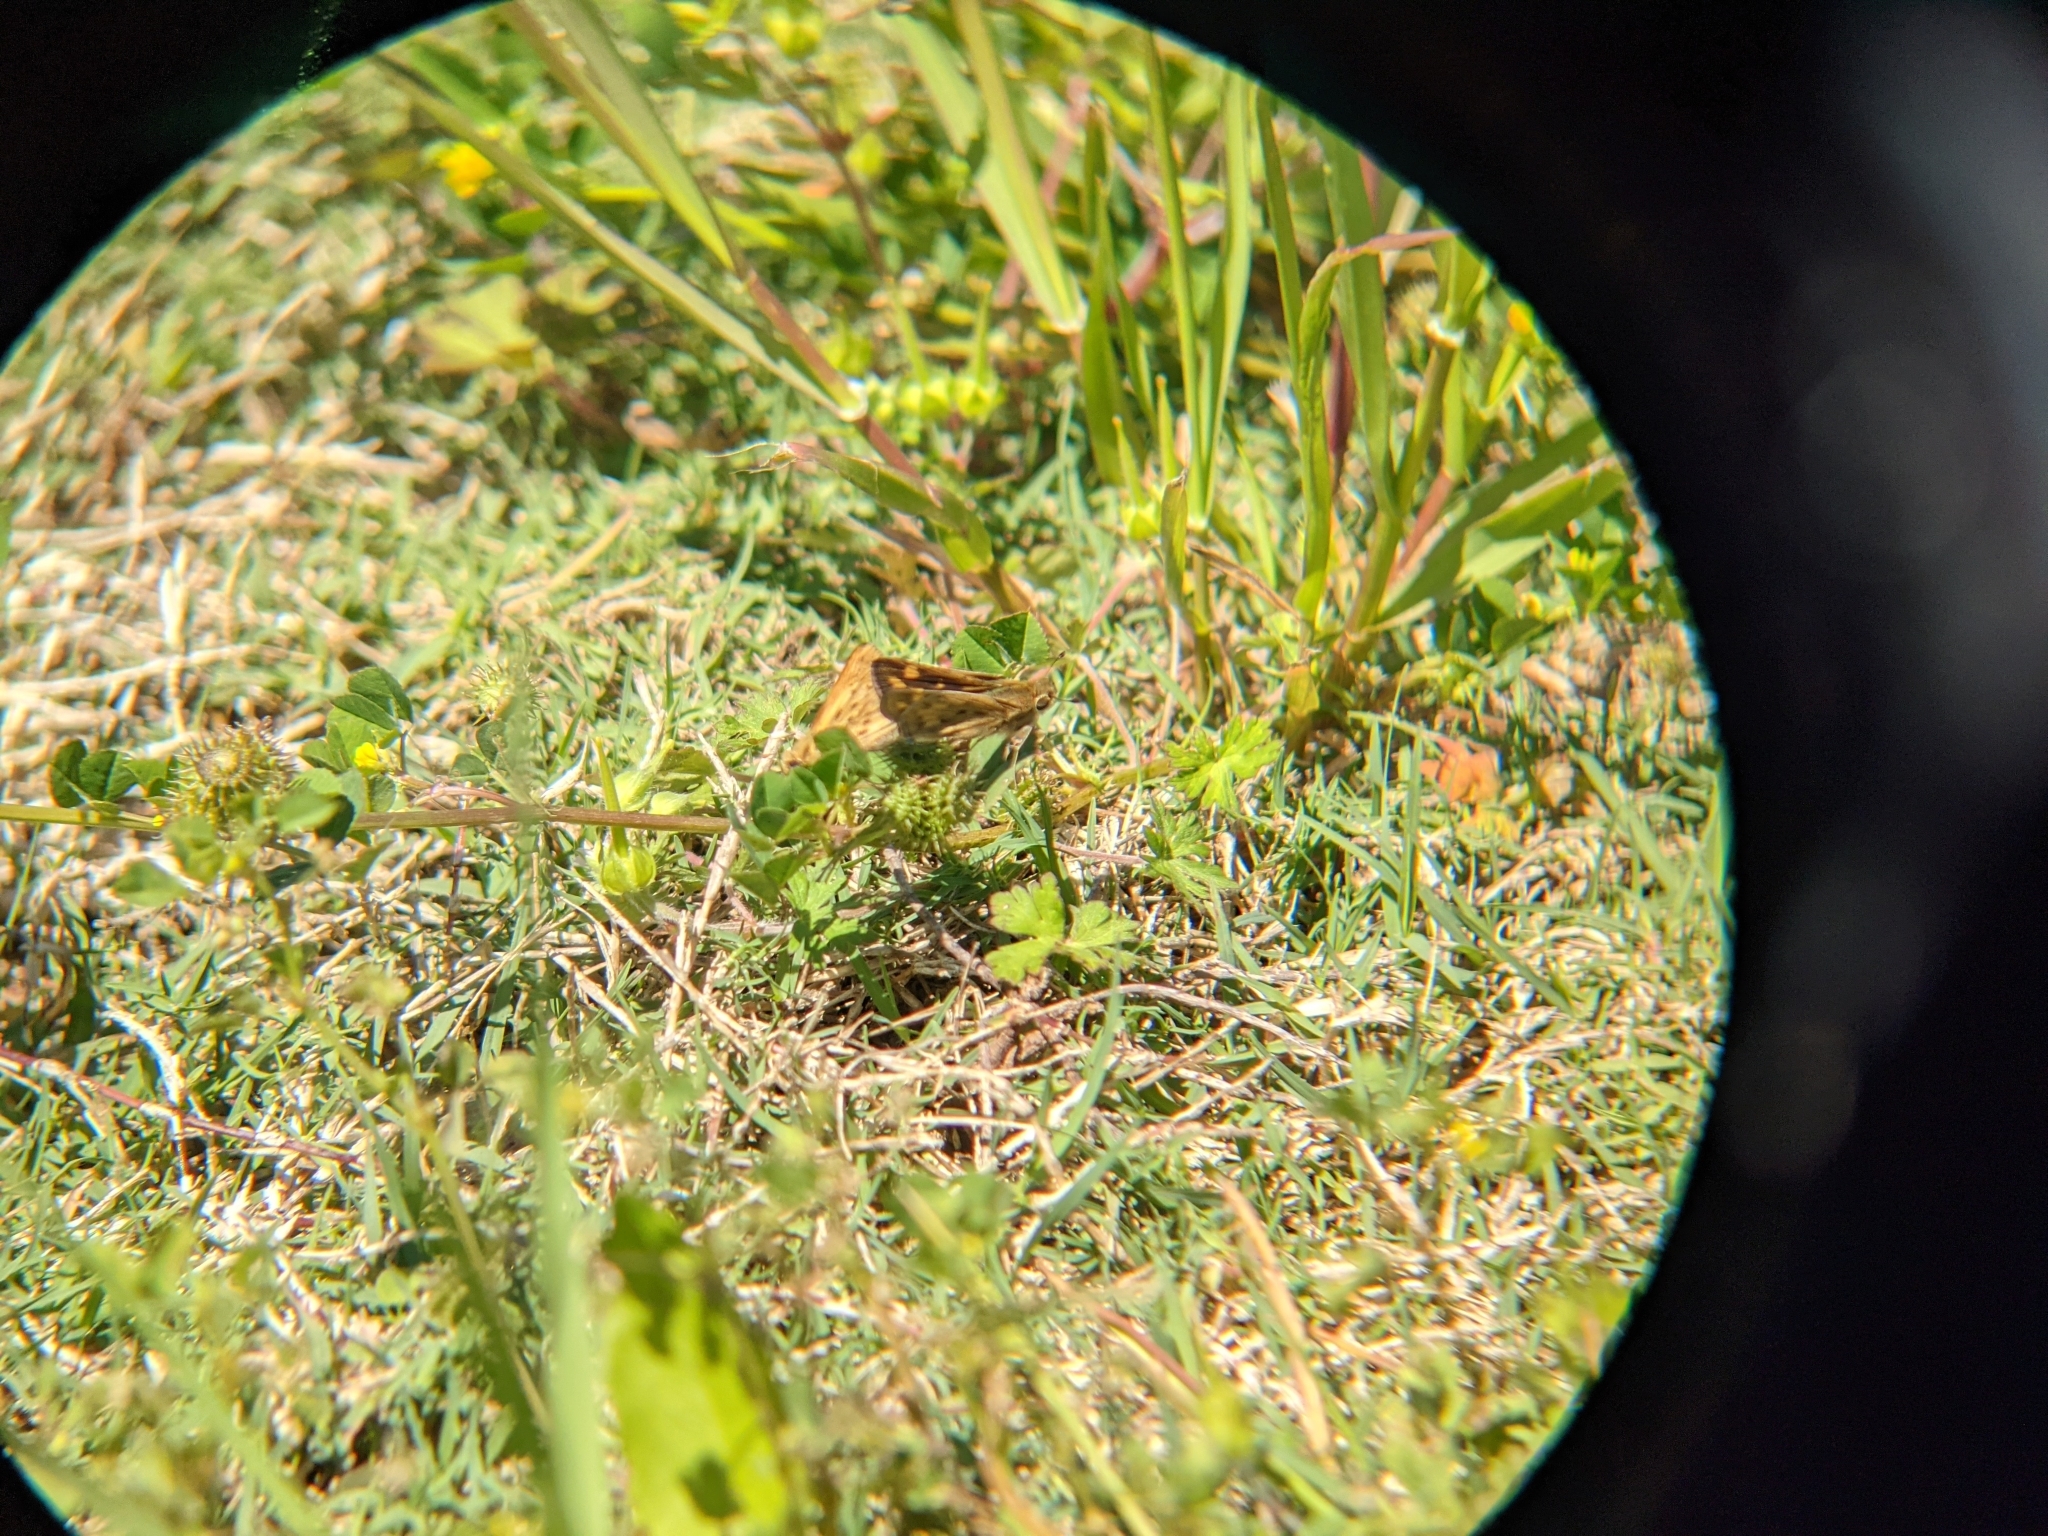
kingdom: Animalia
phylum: Arthropoda
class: Insecta
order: Lepidoptera
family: Hesperiidae
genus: Hylephila
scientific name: Hylephila phyleus
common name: Fiery skipper
